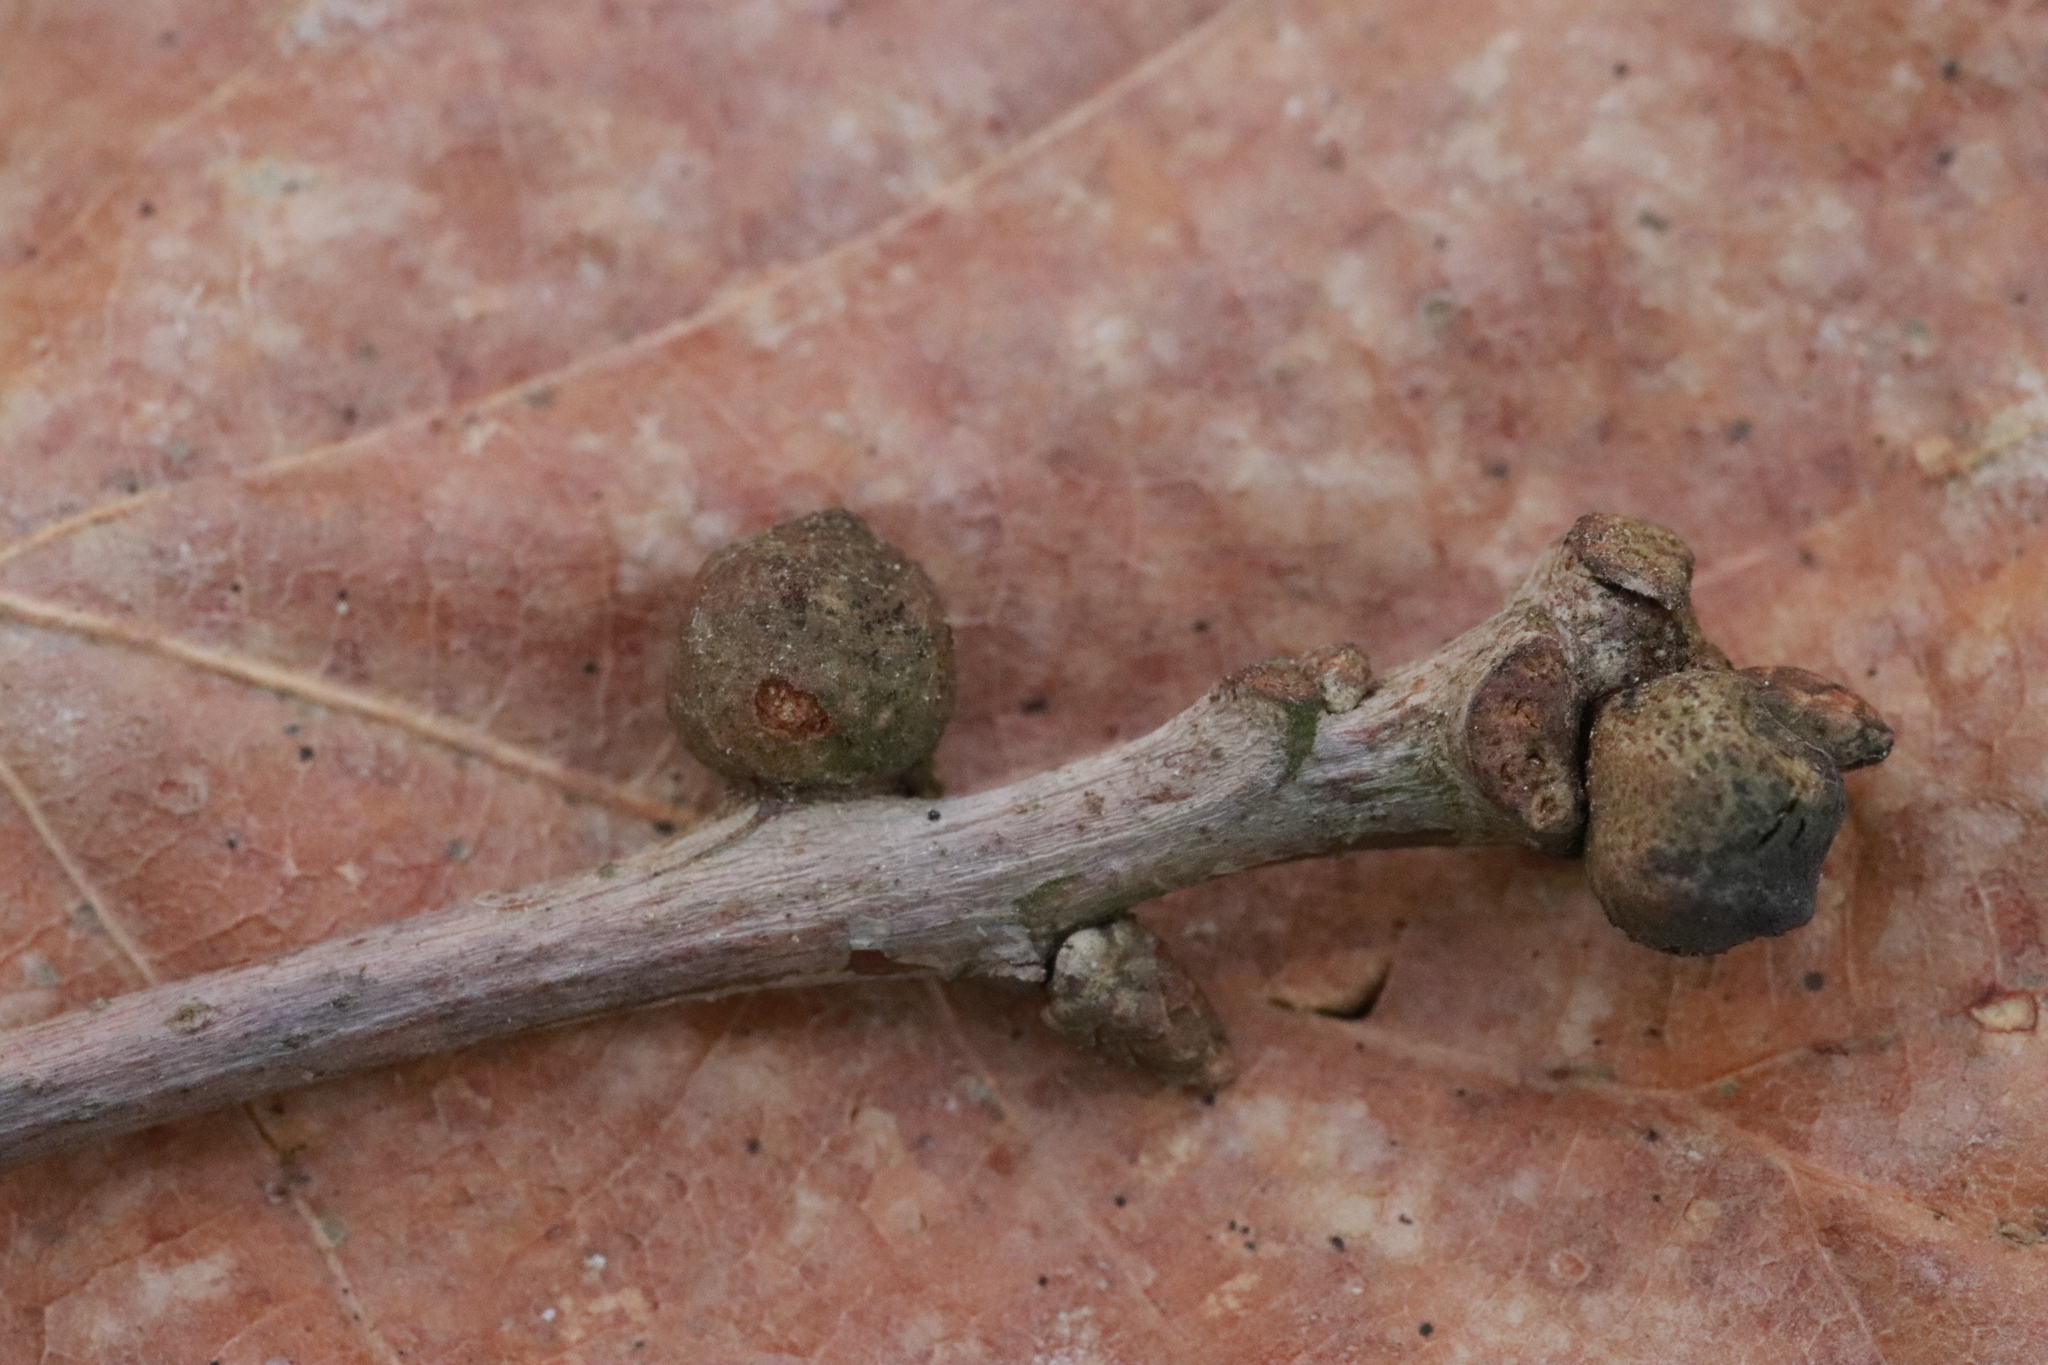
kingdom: Animalia
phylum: Arthropoda
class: Insecta
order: Hymenoptera
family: Cynipidae
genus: Andricus
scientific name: Andricus lignicolus
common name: Cola-nut gall
